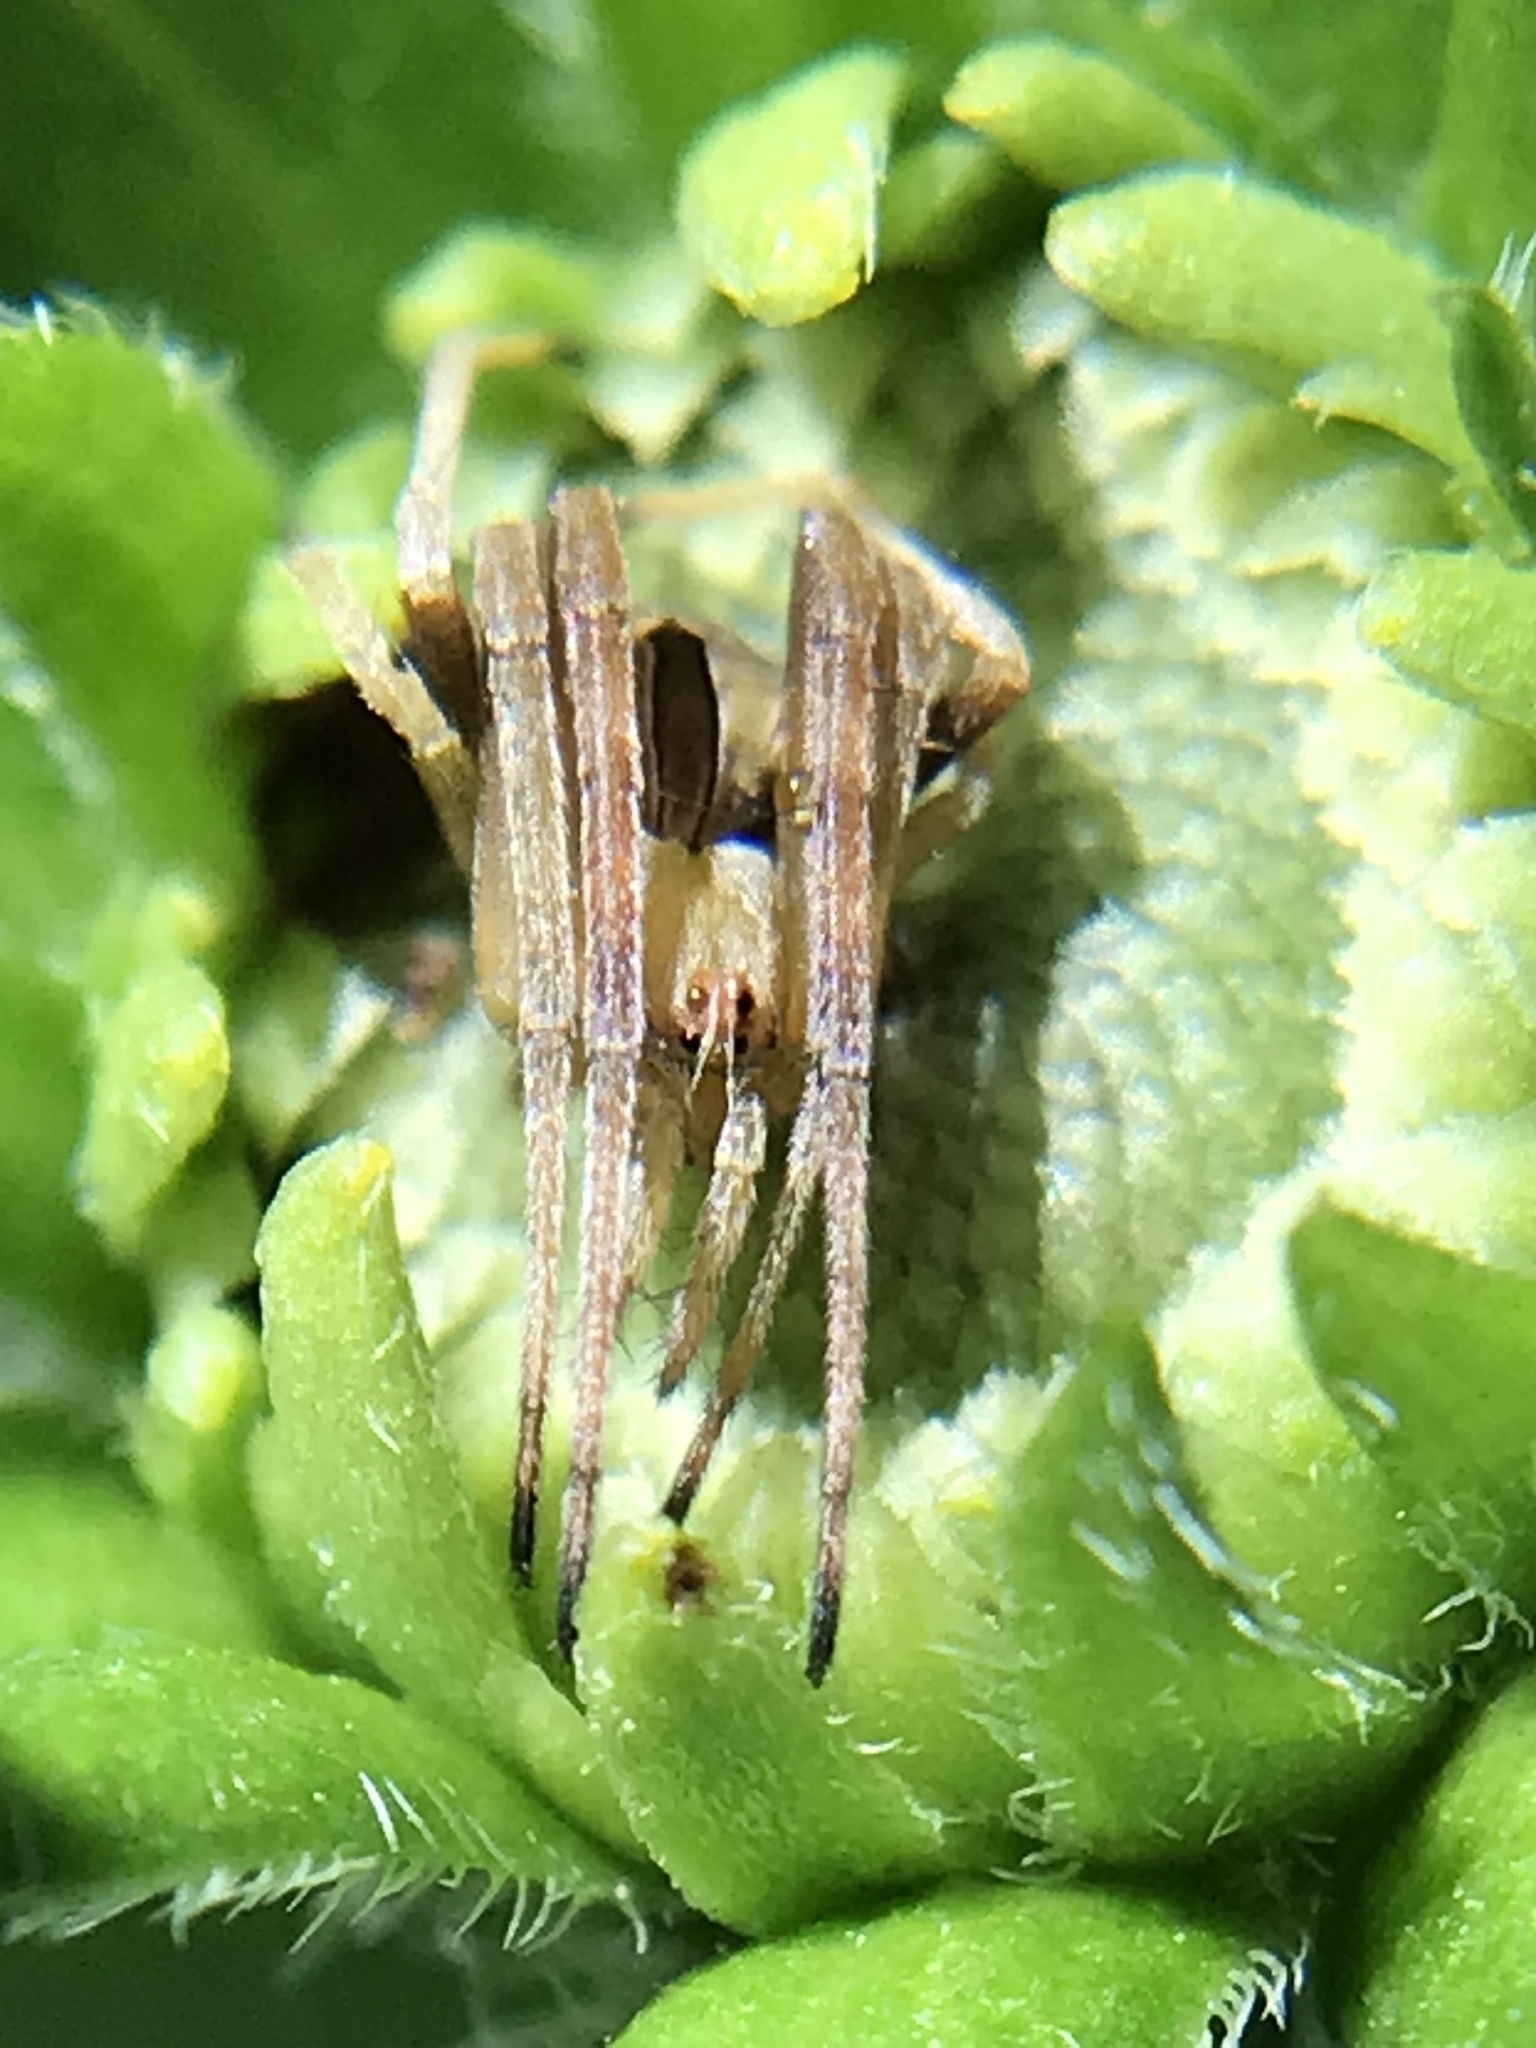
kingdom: Animalia
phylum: Arthropoda
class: Arachnida
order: Araneae
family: Araneidae
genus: Acacesia
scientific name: Acacesia hamata
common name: Orb weavers
